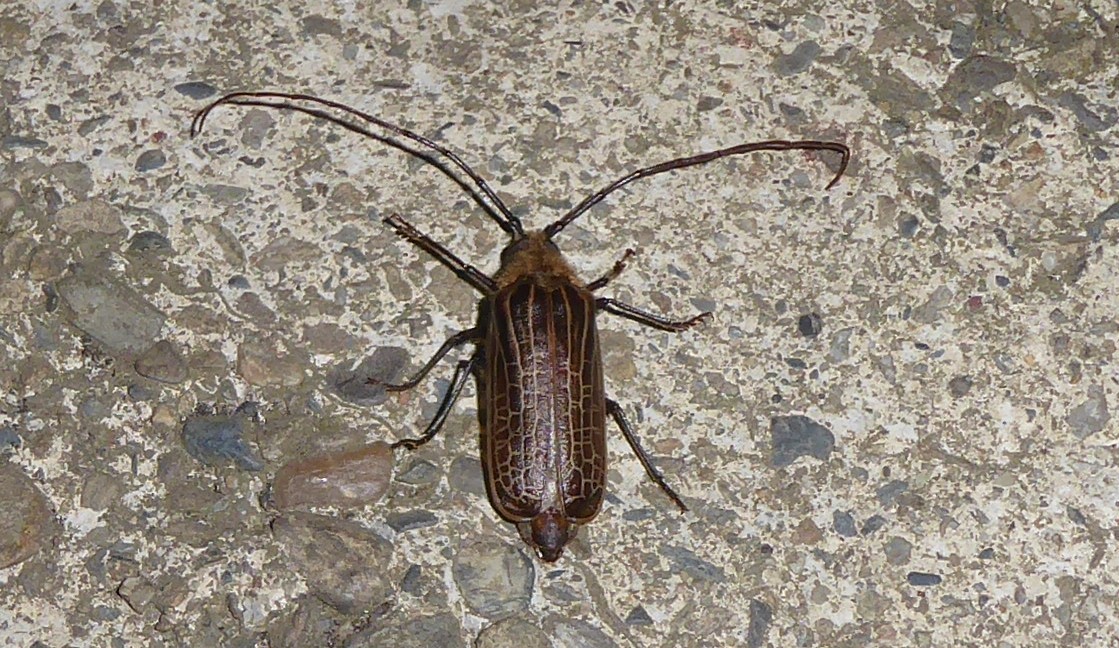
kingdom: Animalia
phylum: Arthropoda
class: Insecta
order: Coleoptera
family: Cerambycidae
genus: Prionoplus
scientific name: Prionoplus reticularis
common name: Huhu beetle
